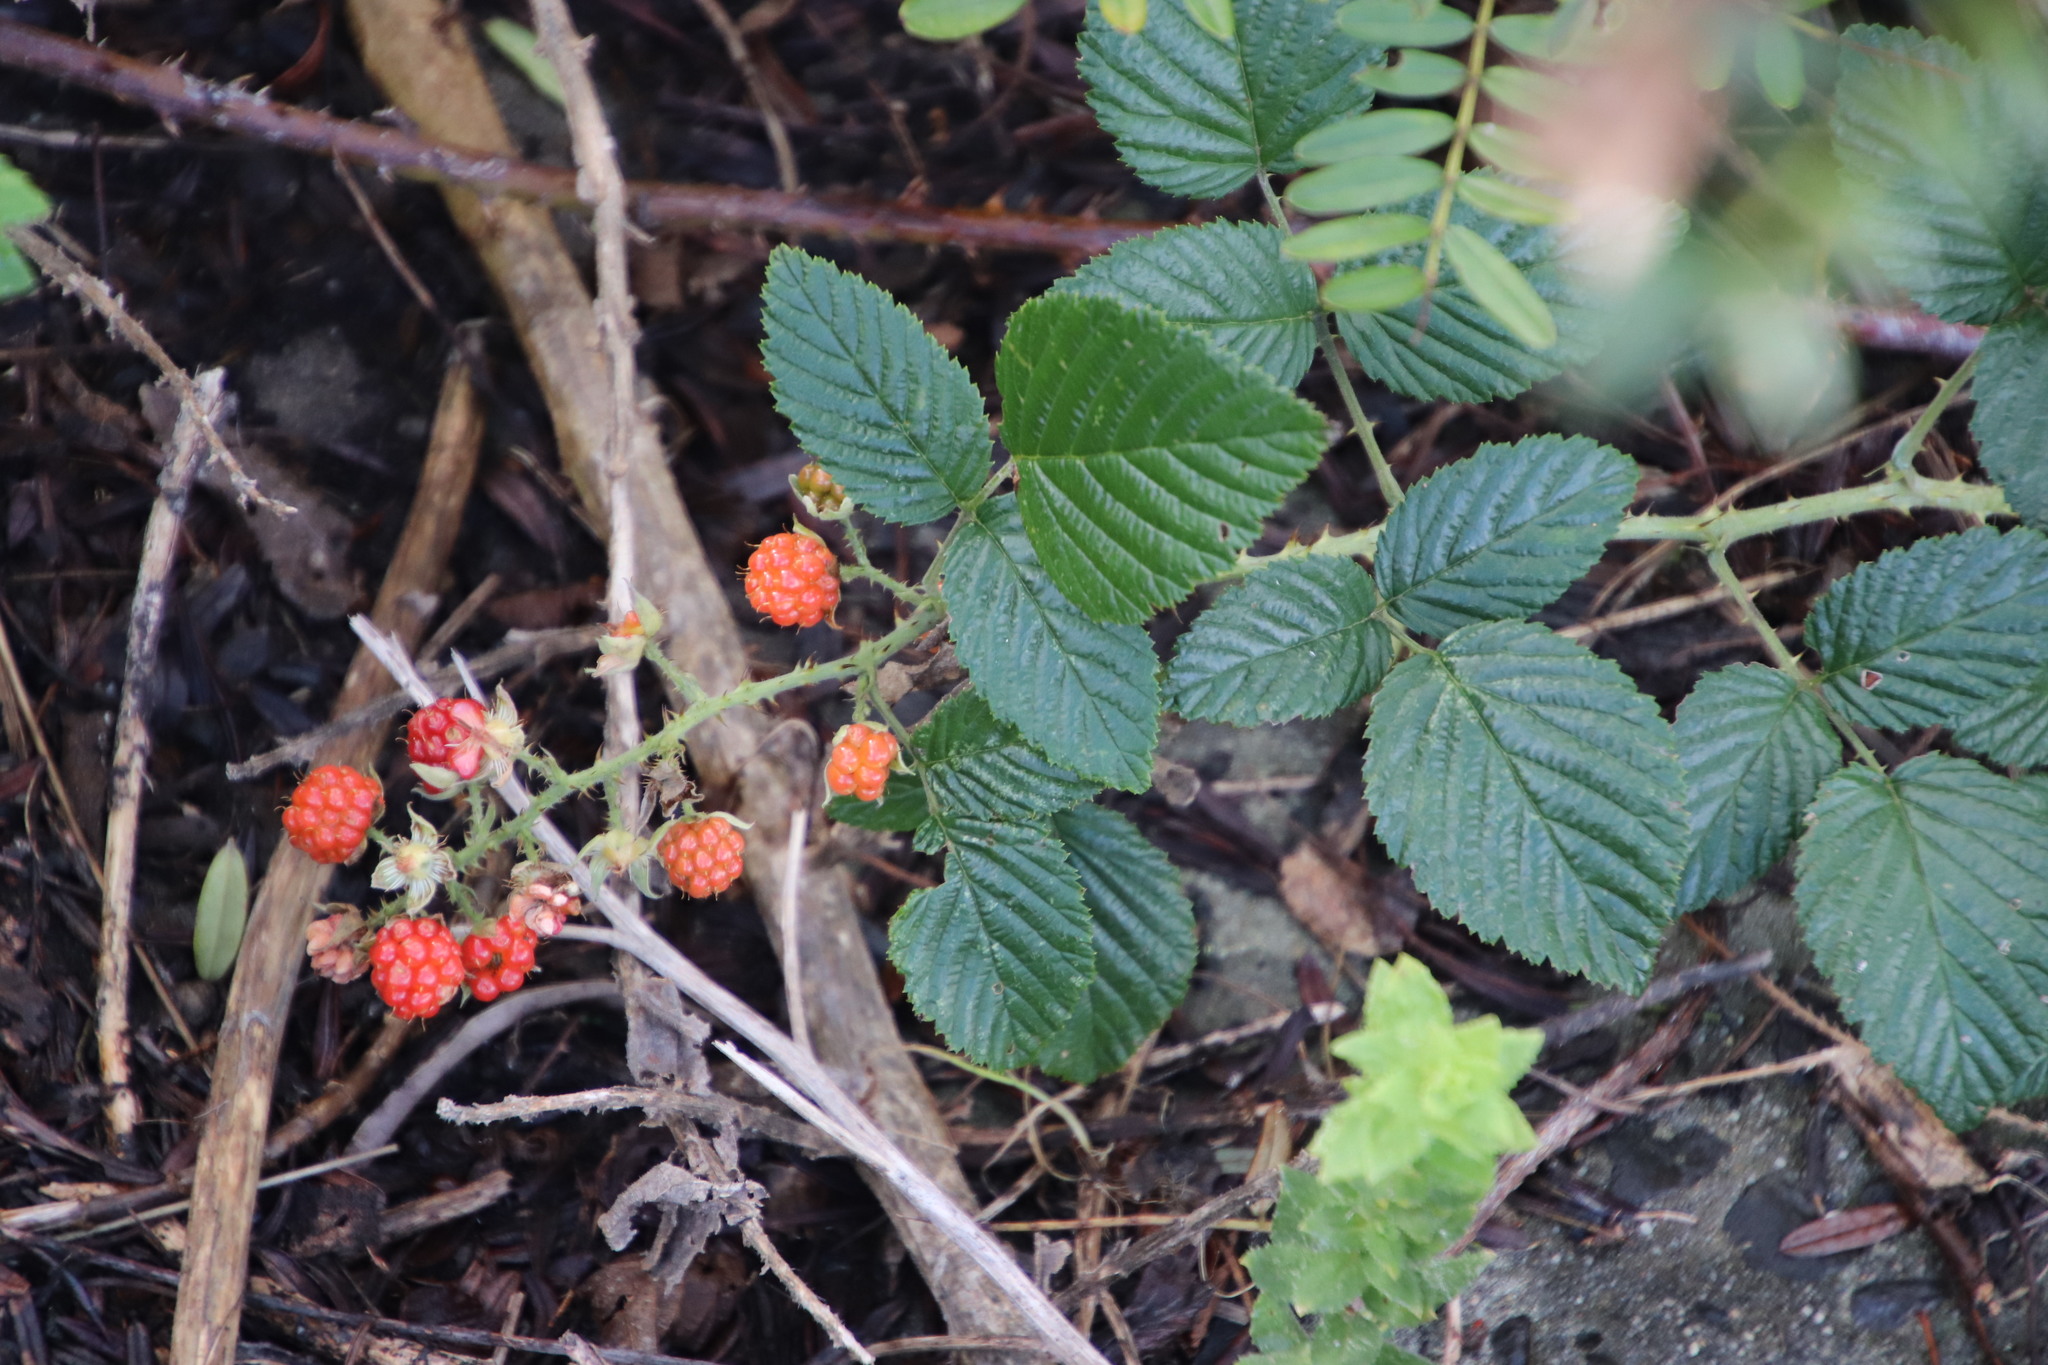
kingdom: Plantae
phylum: Tracheophyta
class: Magnoliopsida
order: Rosales
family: Rosaceae
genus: Rubus
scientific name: Rubus pinnatus
